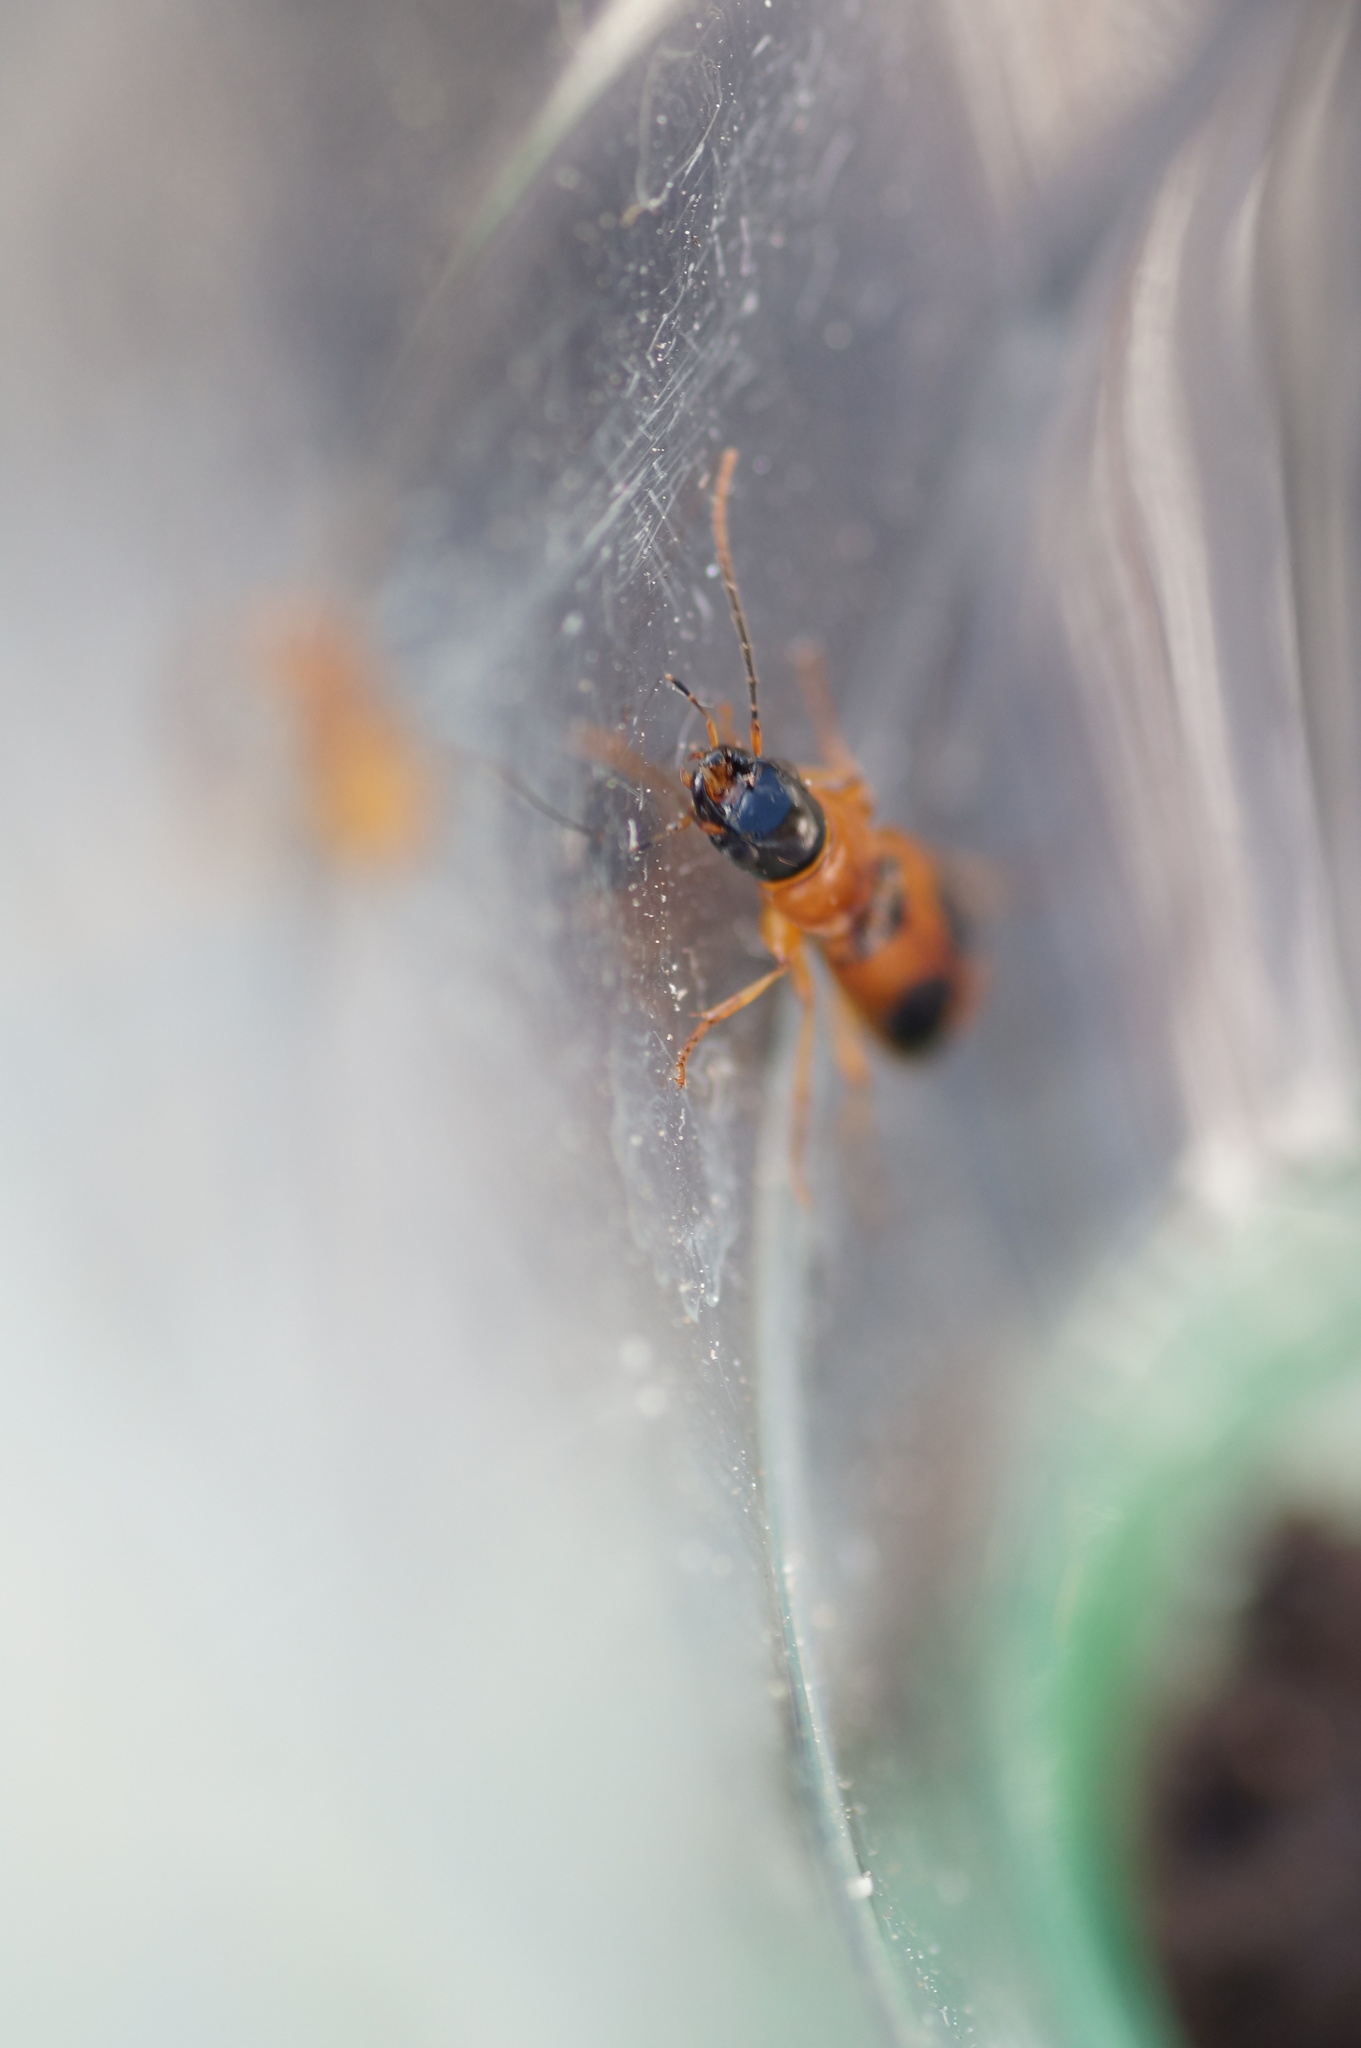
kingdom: Animalia
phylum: Arthropoda
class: Insecta
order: Coleoptera
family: Carabidae
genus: Badister
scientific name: Badister bullatus
